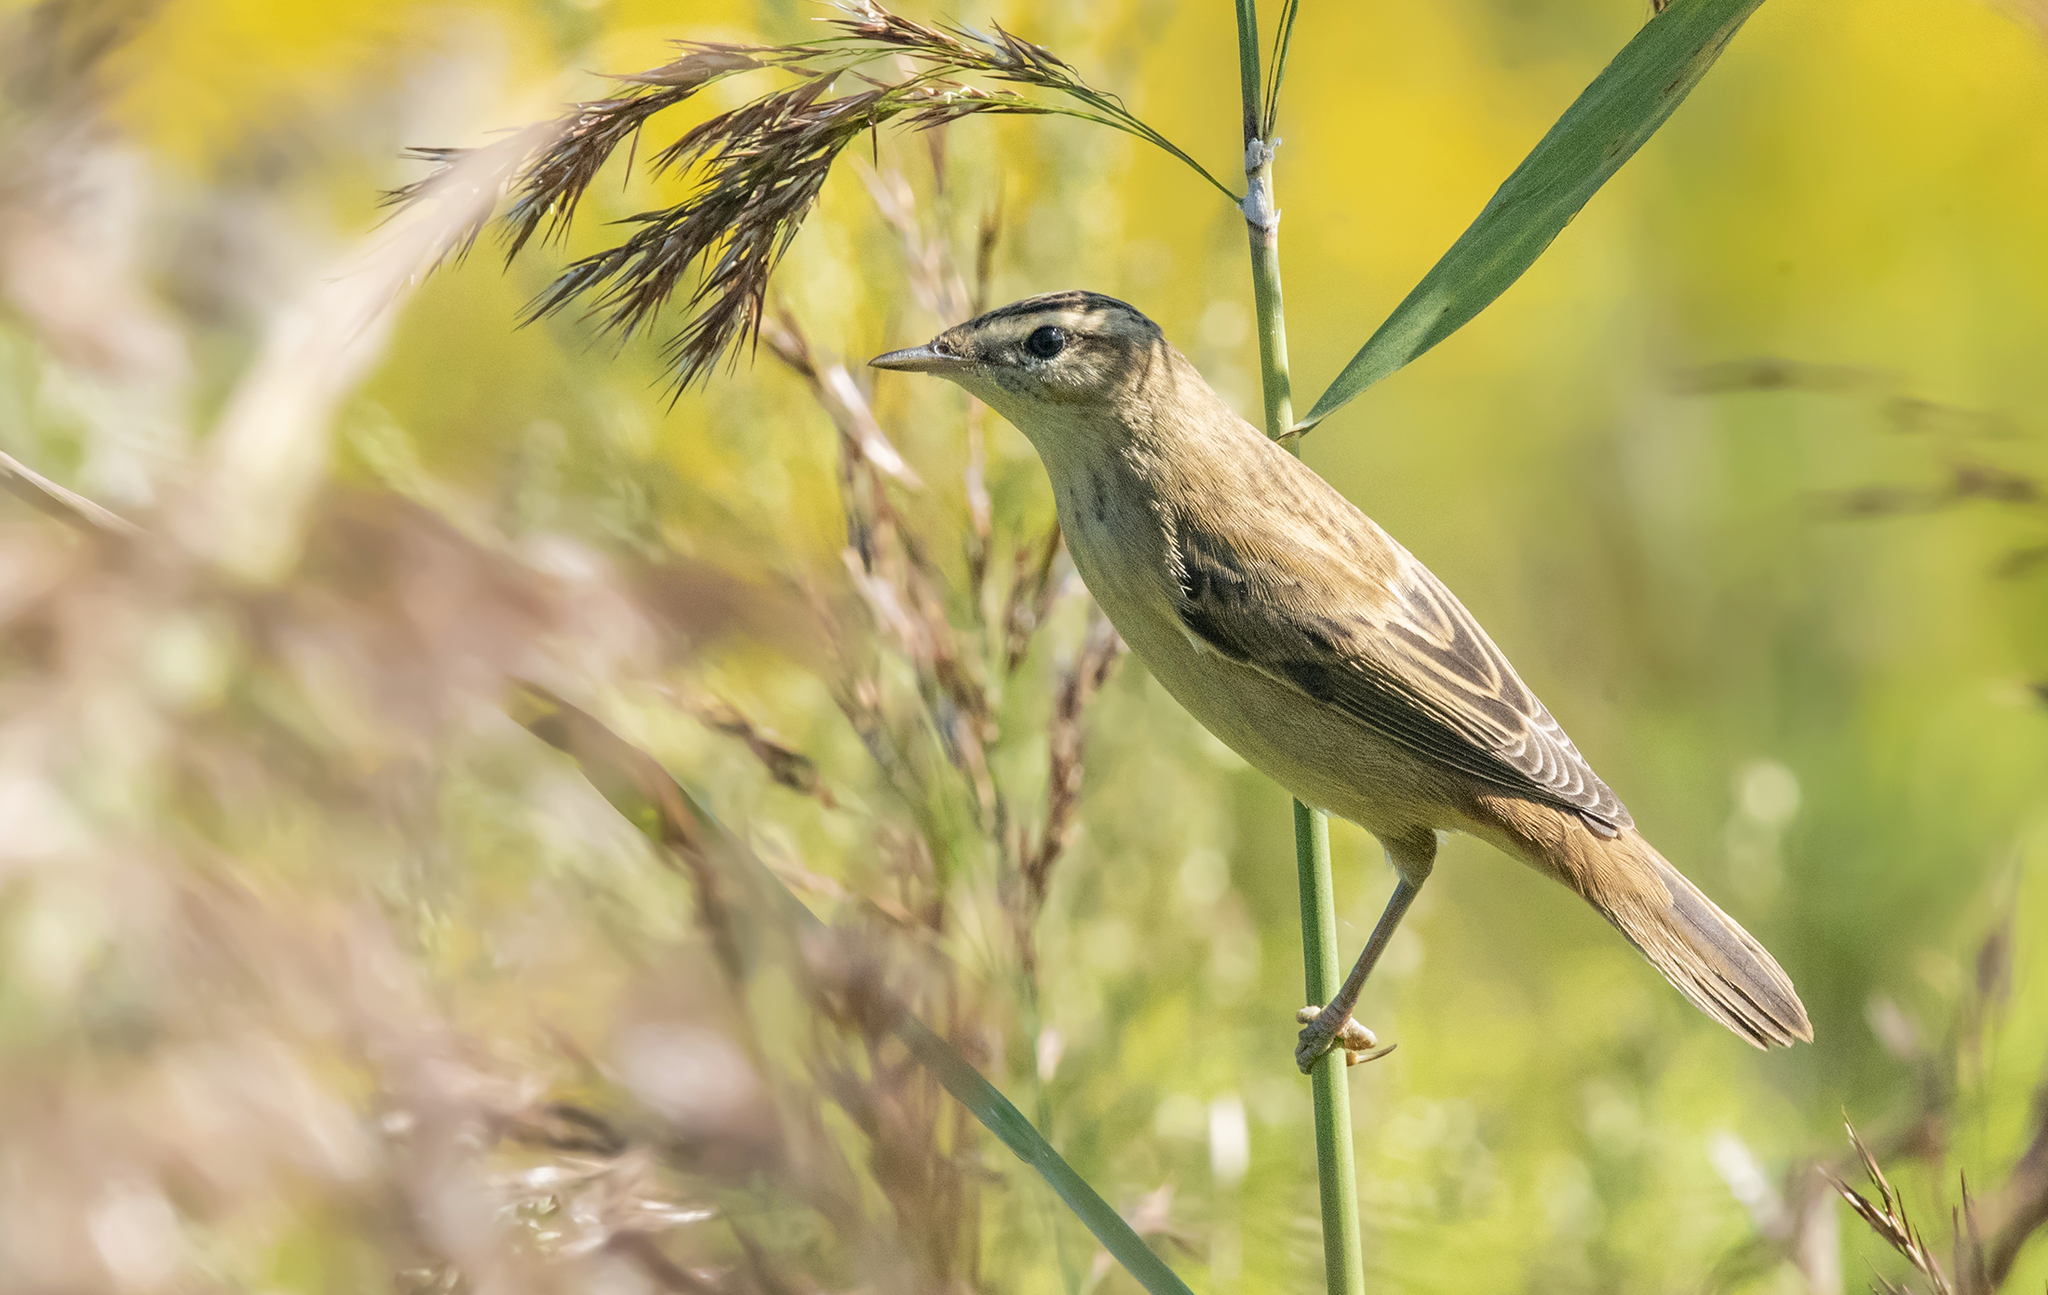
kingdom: Animalia
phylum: Chordata
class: Aves
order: Passeriformes
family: Acrocephalidae
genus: Acrocephalus
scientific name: Acrocephalus schoenobaenus
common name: Sedge warbler
